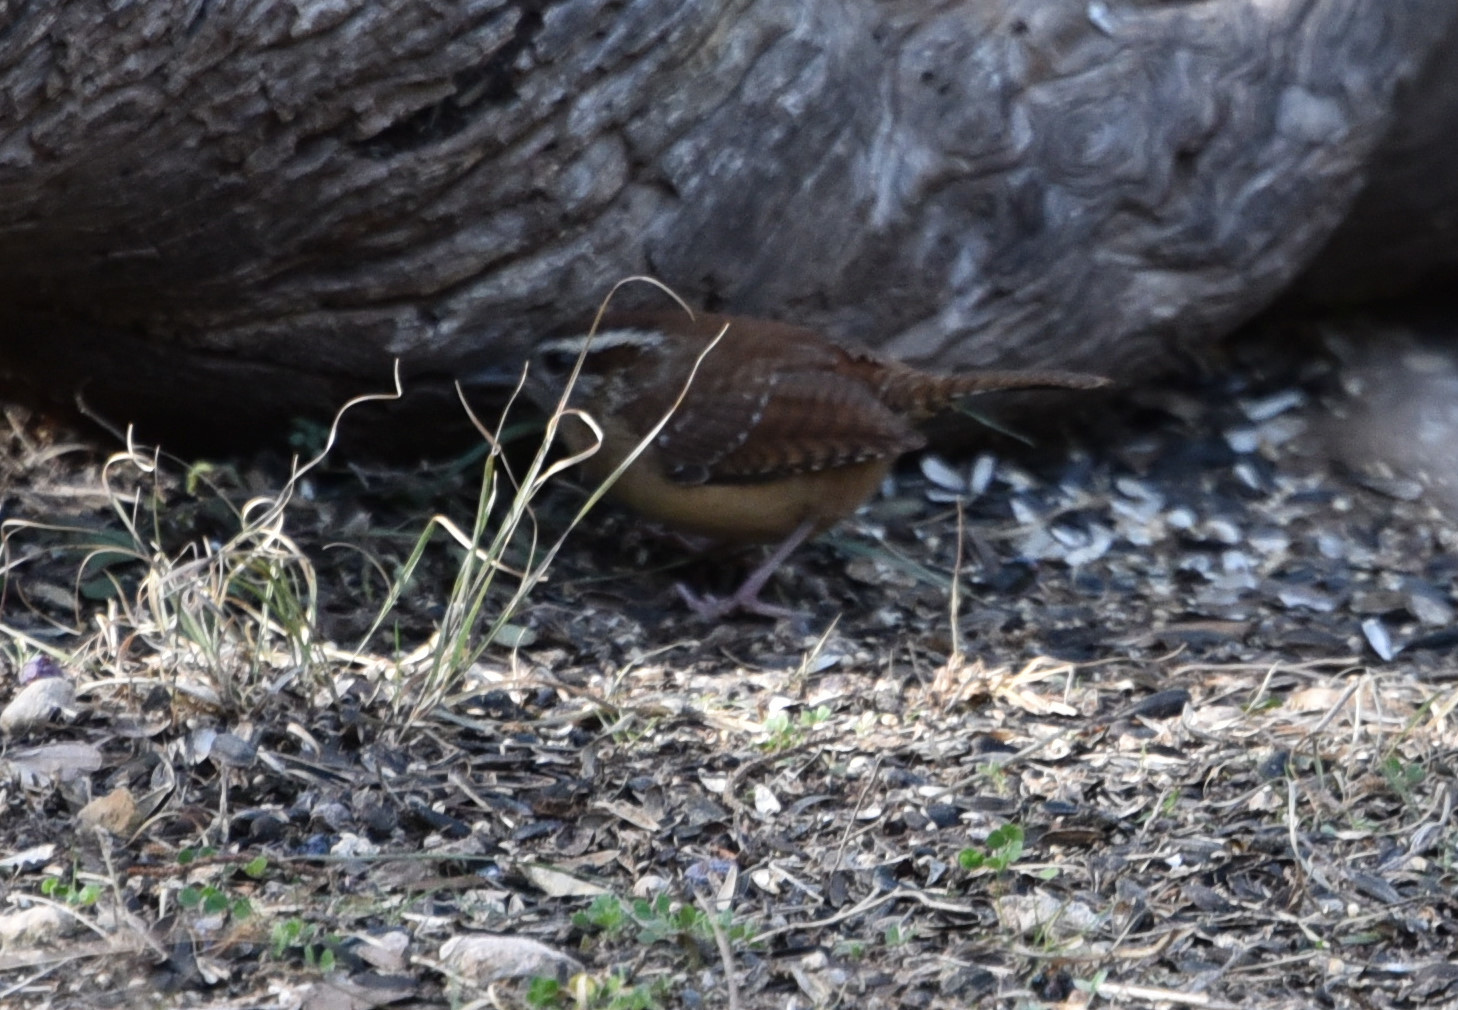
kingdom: Animalia
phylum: Chordata
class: Aves
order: Passeriformes
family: Troglodytidae
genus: Thryothorus
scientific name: Thryothorus ludovicianus
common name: Carolina wren
